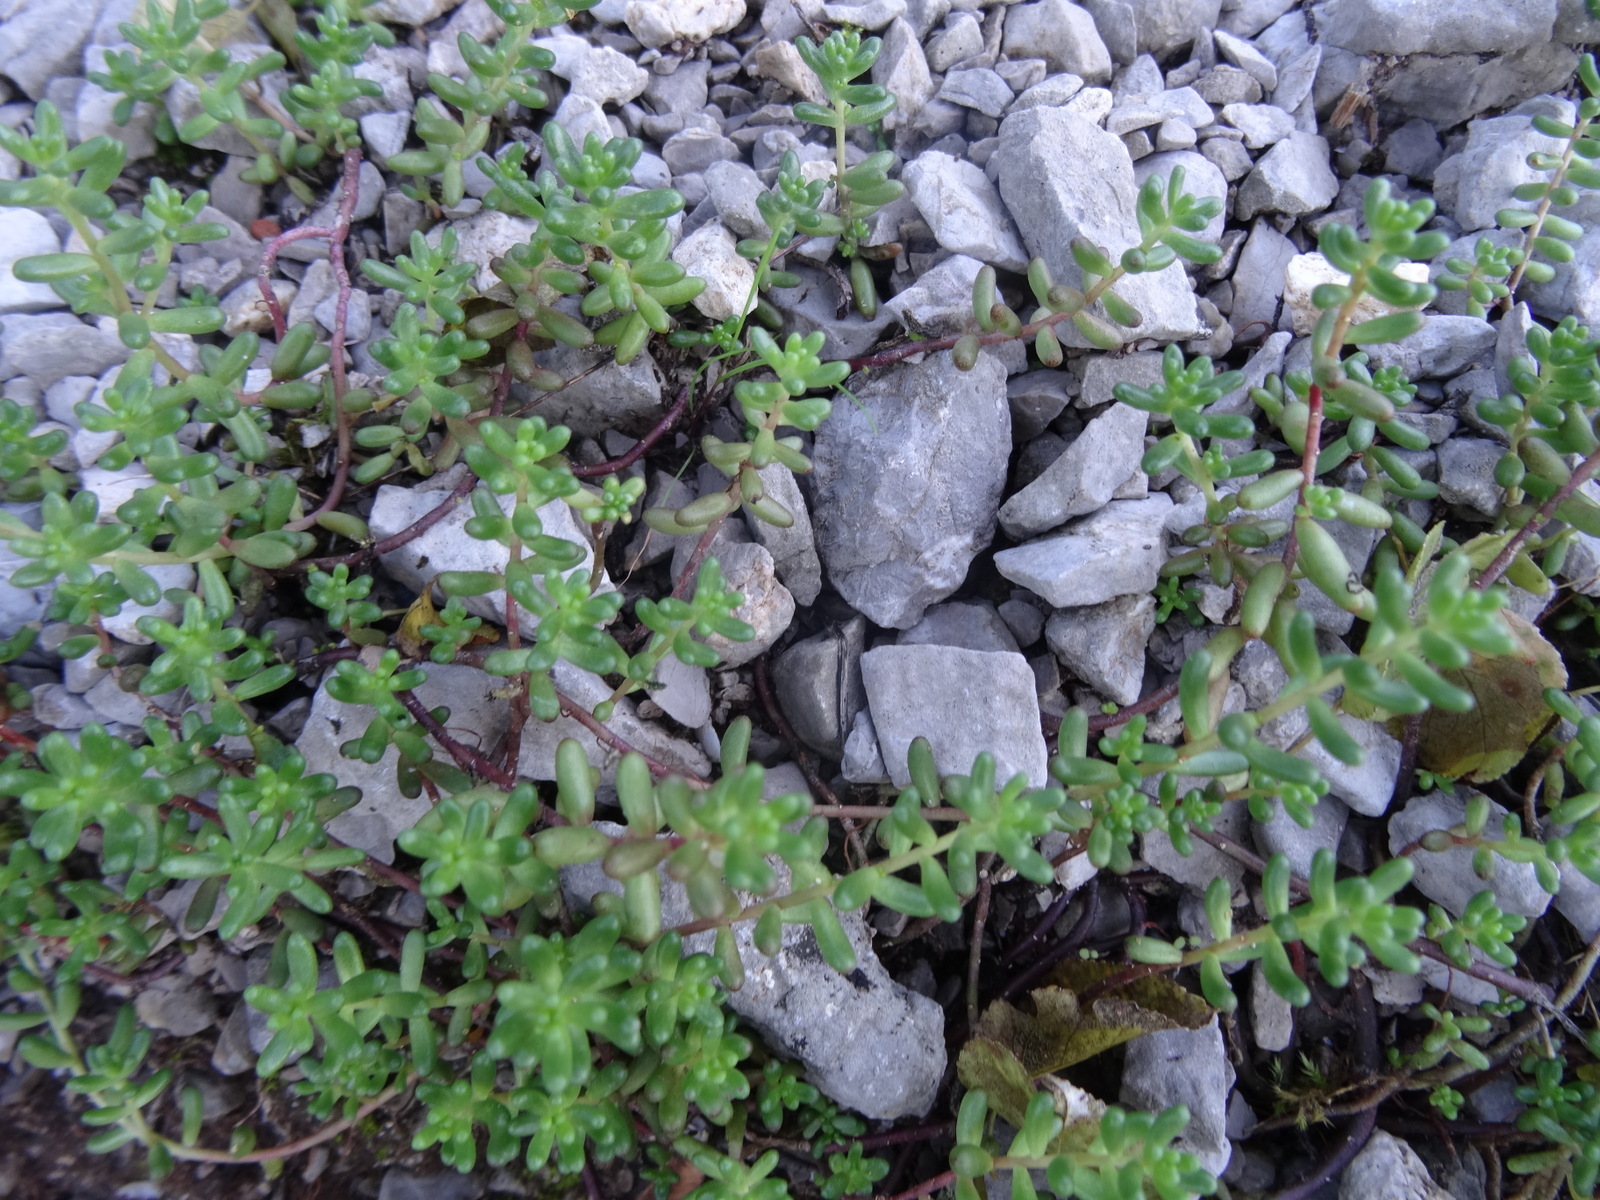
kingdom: Plantae
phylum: Tracheophyta
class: Magnoliopsida
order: Saxifragales
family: Crassulaceae
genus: Sedum
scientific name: Sedum album
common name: White stonecrop
